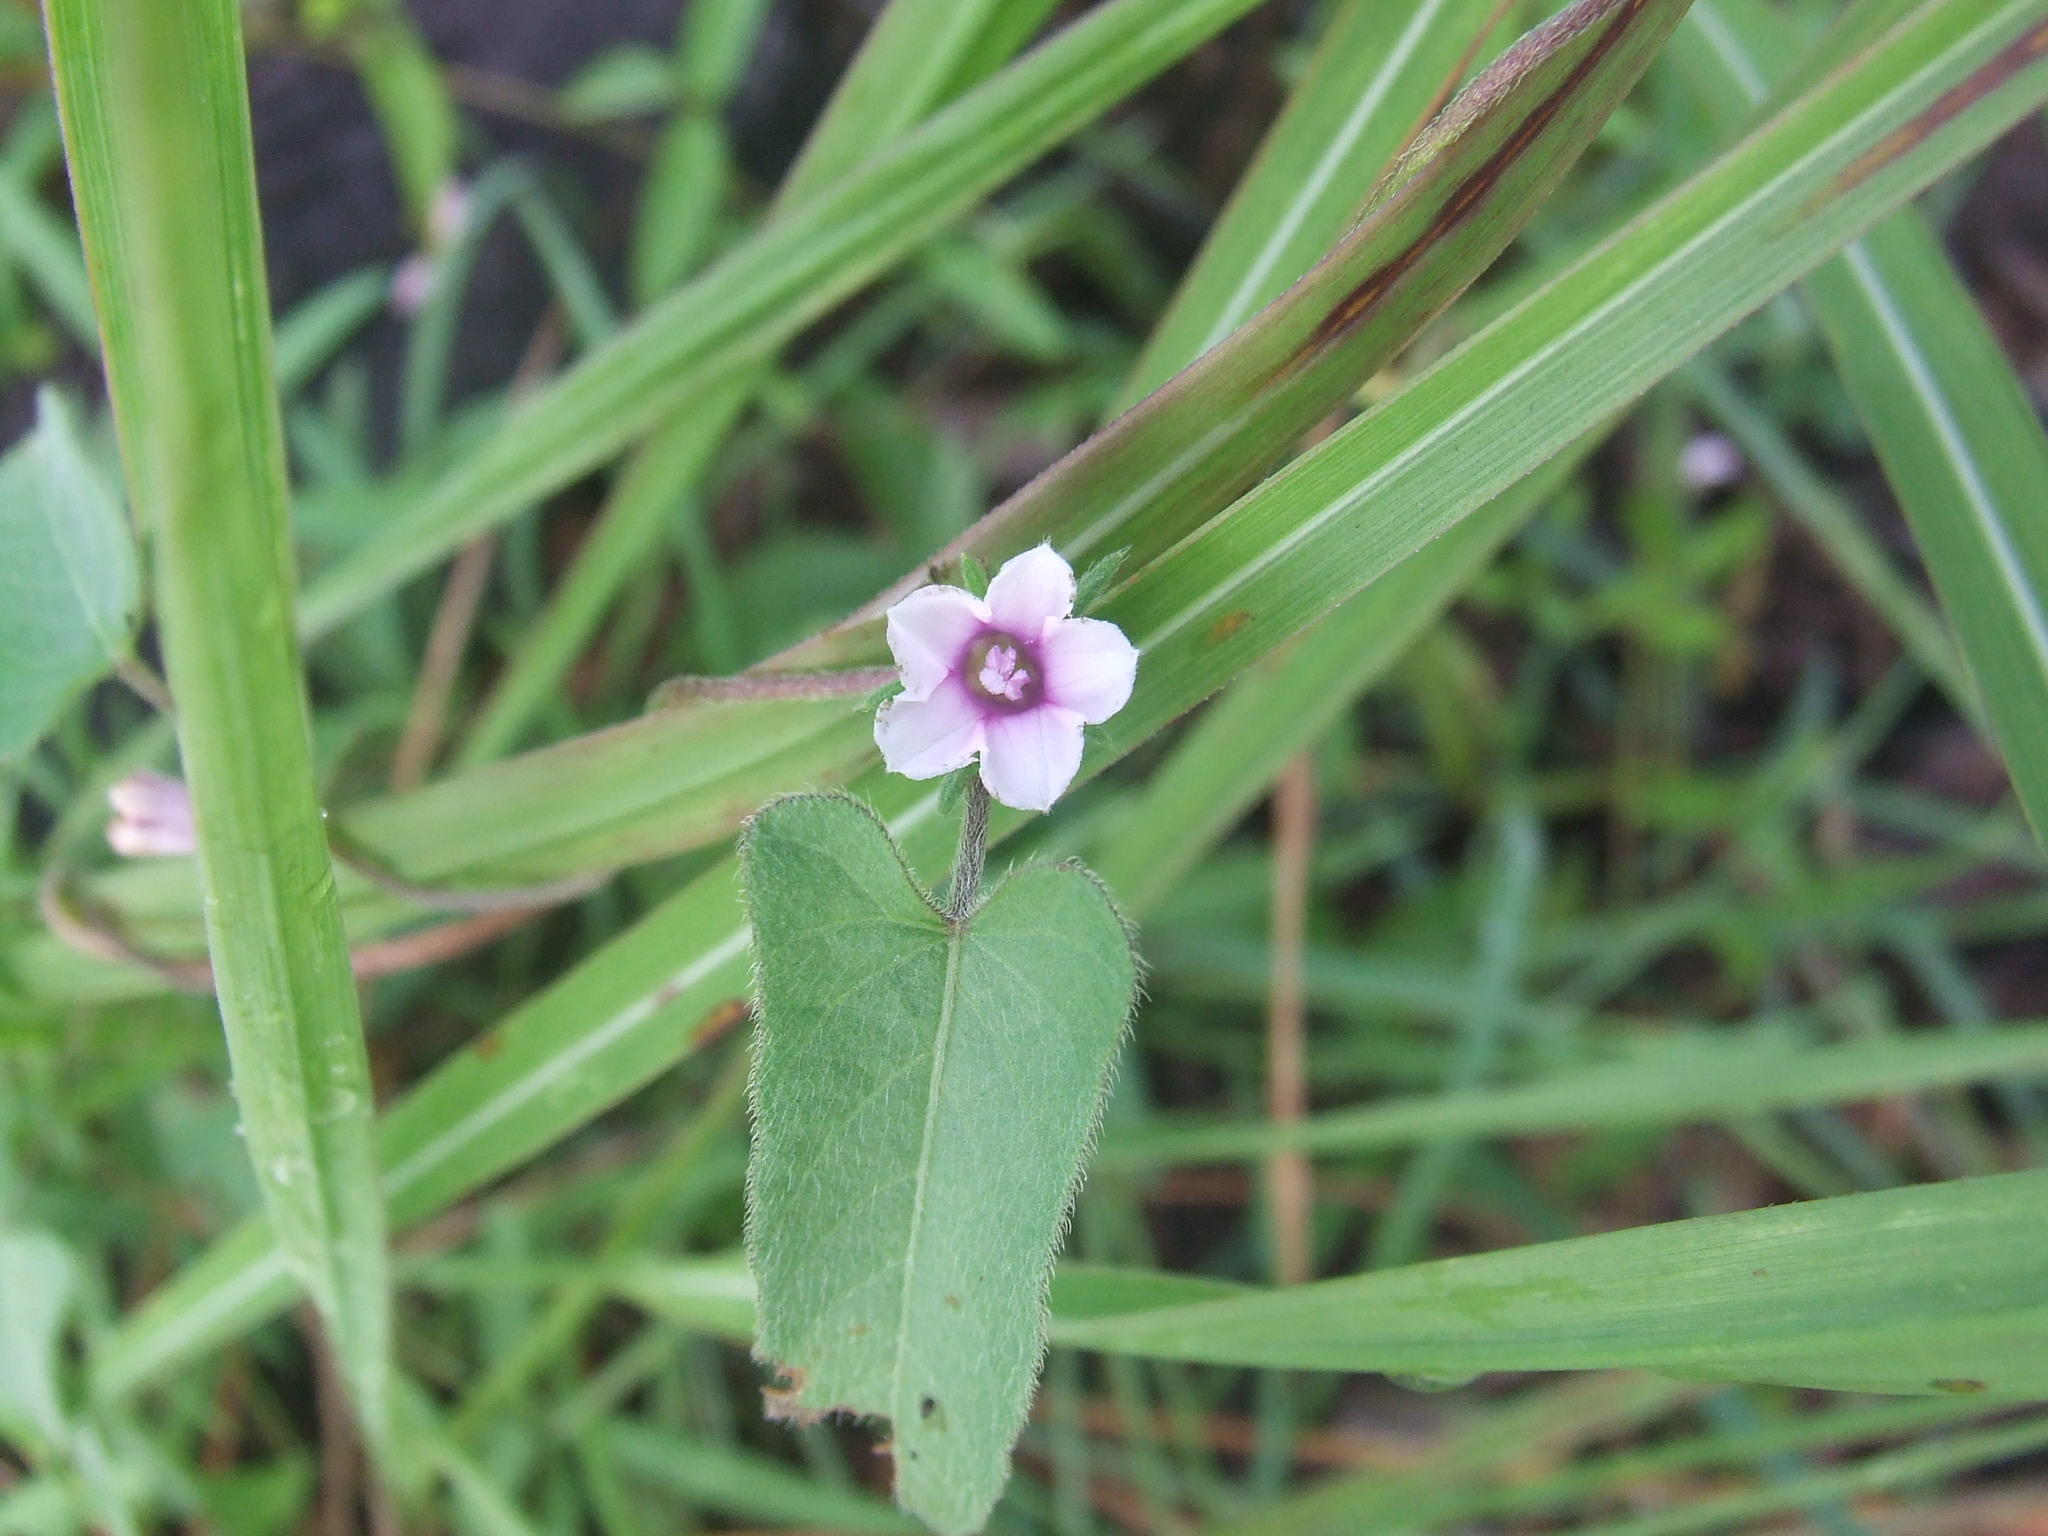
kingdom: Plantae
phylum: Tracheophyta
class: Magnoliopsida
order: Solanales
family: Convolvulaceae
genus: Ipomoea
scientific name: Ipomoea eriocarpa
